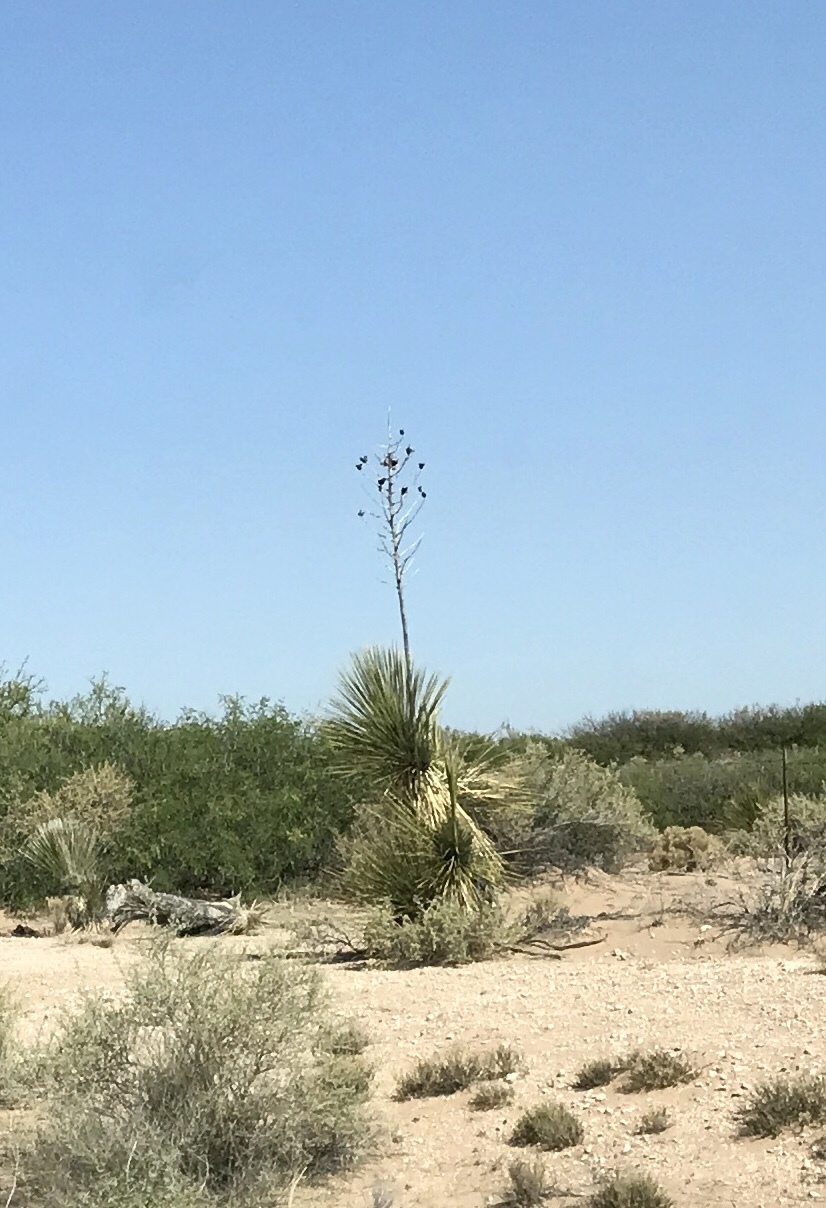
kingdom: Plantae
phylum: Tracheophyta
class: Liliopsida
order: Asparagales
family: Asparagaceae
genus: Yucca
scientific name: Yucca elata
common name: Palmella
